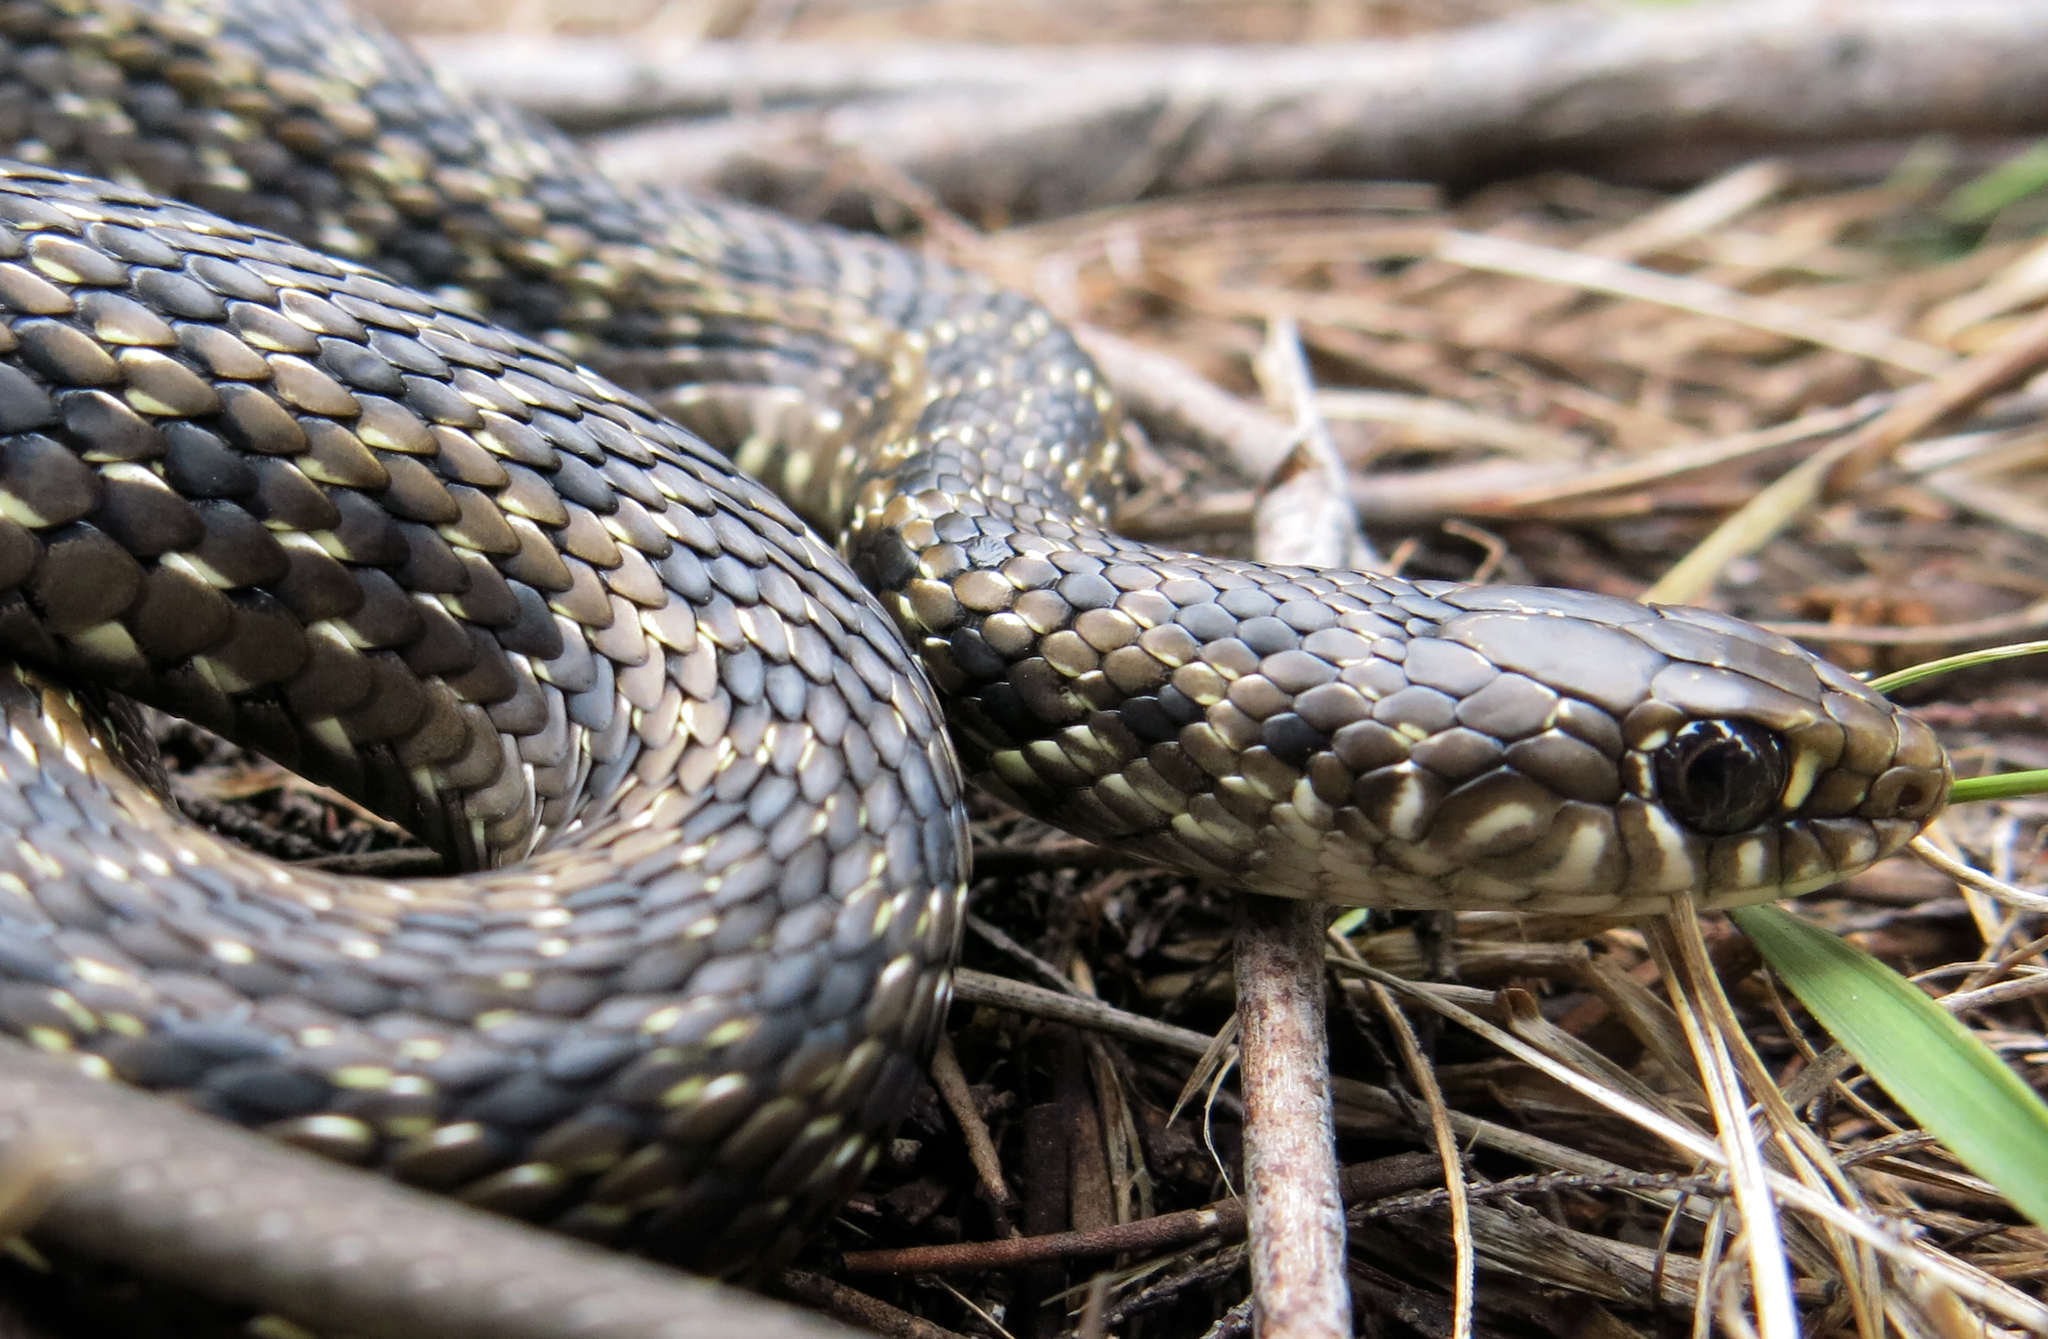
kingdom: Animalia
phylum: Chordata
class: Squamata
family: Pseudoxyrhophiidae
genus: Amplorhinus
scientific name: Amplorhinus multimaculatus
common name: Many-spotted snake
